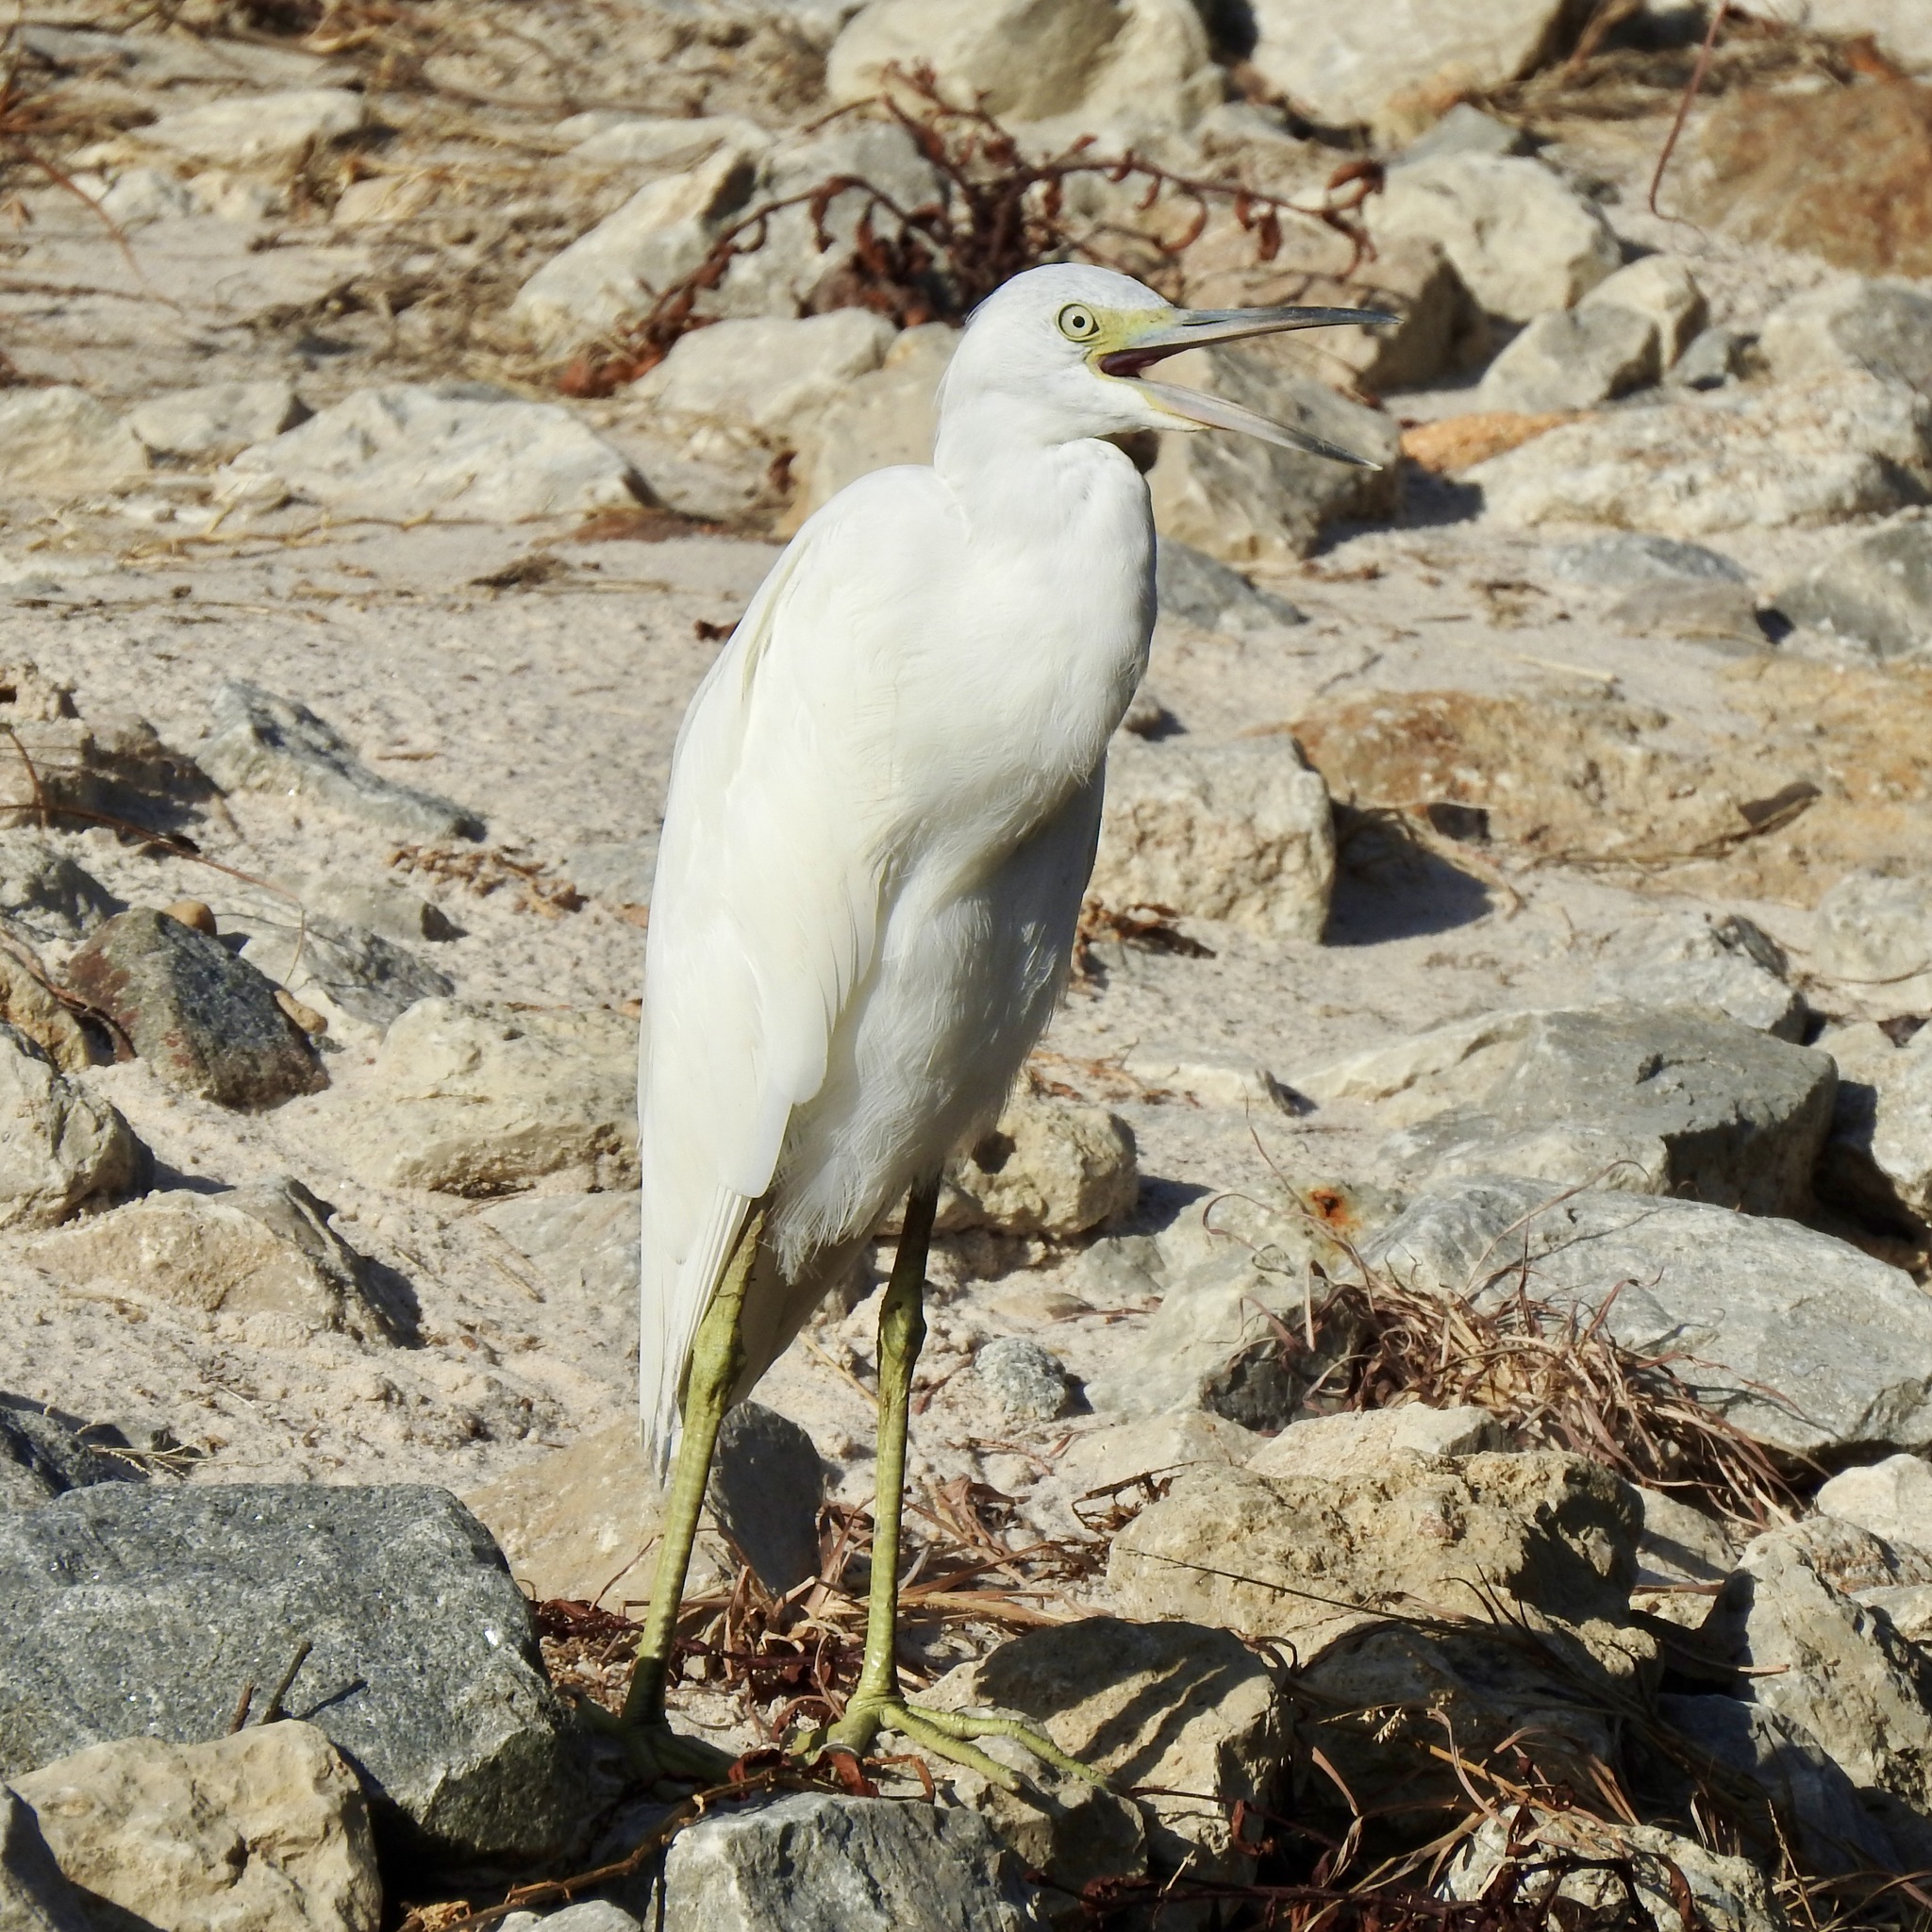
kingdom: Animalia
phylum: Chordata
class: Aves
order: Pelecaniformes
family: Ardeidae
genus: Egretta
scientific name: Egretta caerulea
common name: Little blue heron
